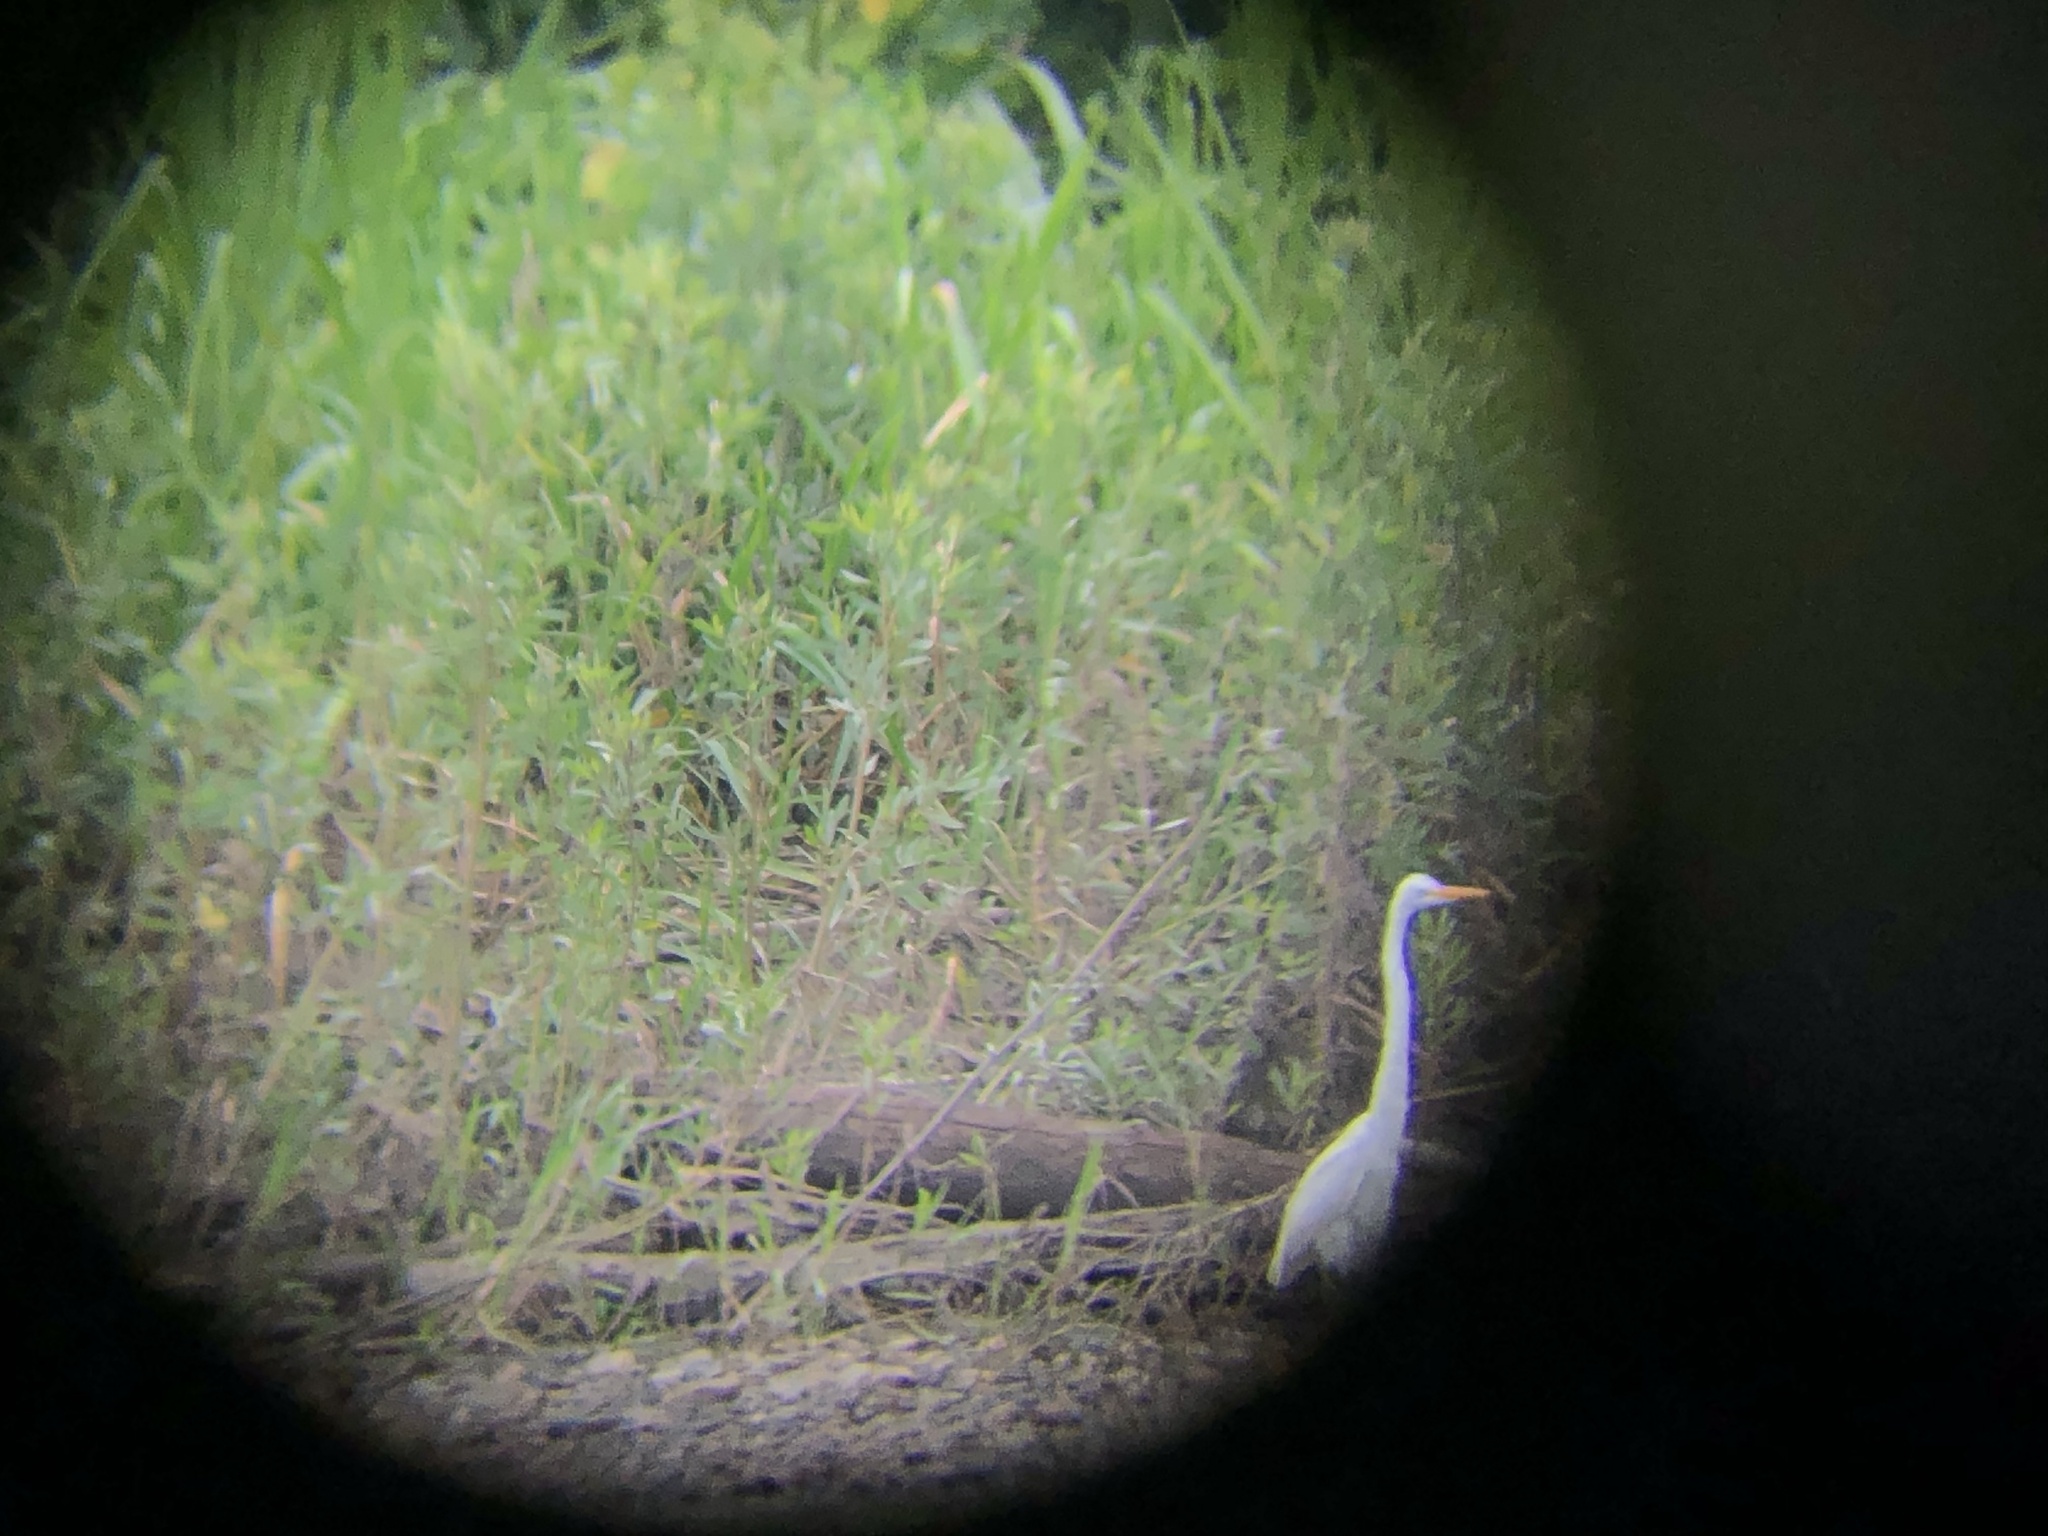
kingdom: Animalia
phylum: Chordata
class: Aves
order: Pelecaniformes
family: Ardeidae
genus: Ardea
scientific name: Ardea alba
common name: Great egret
